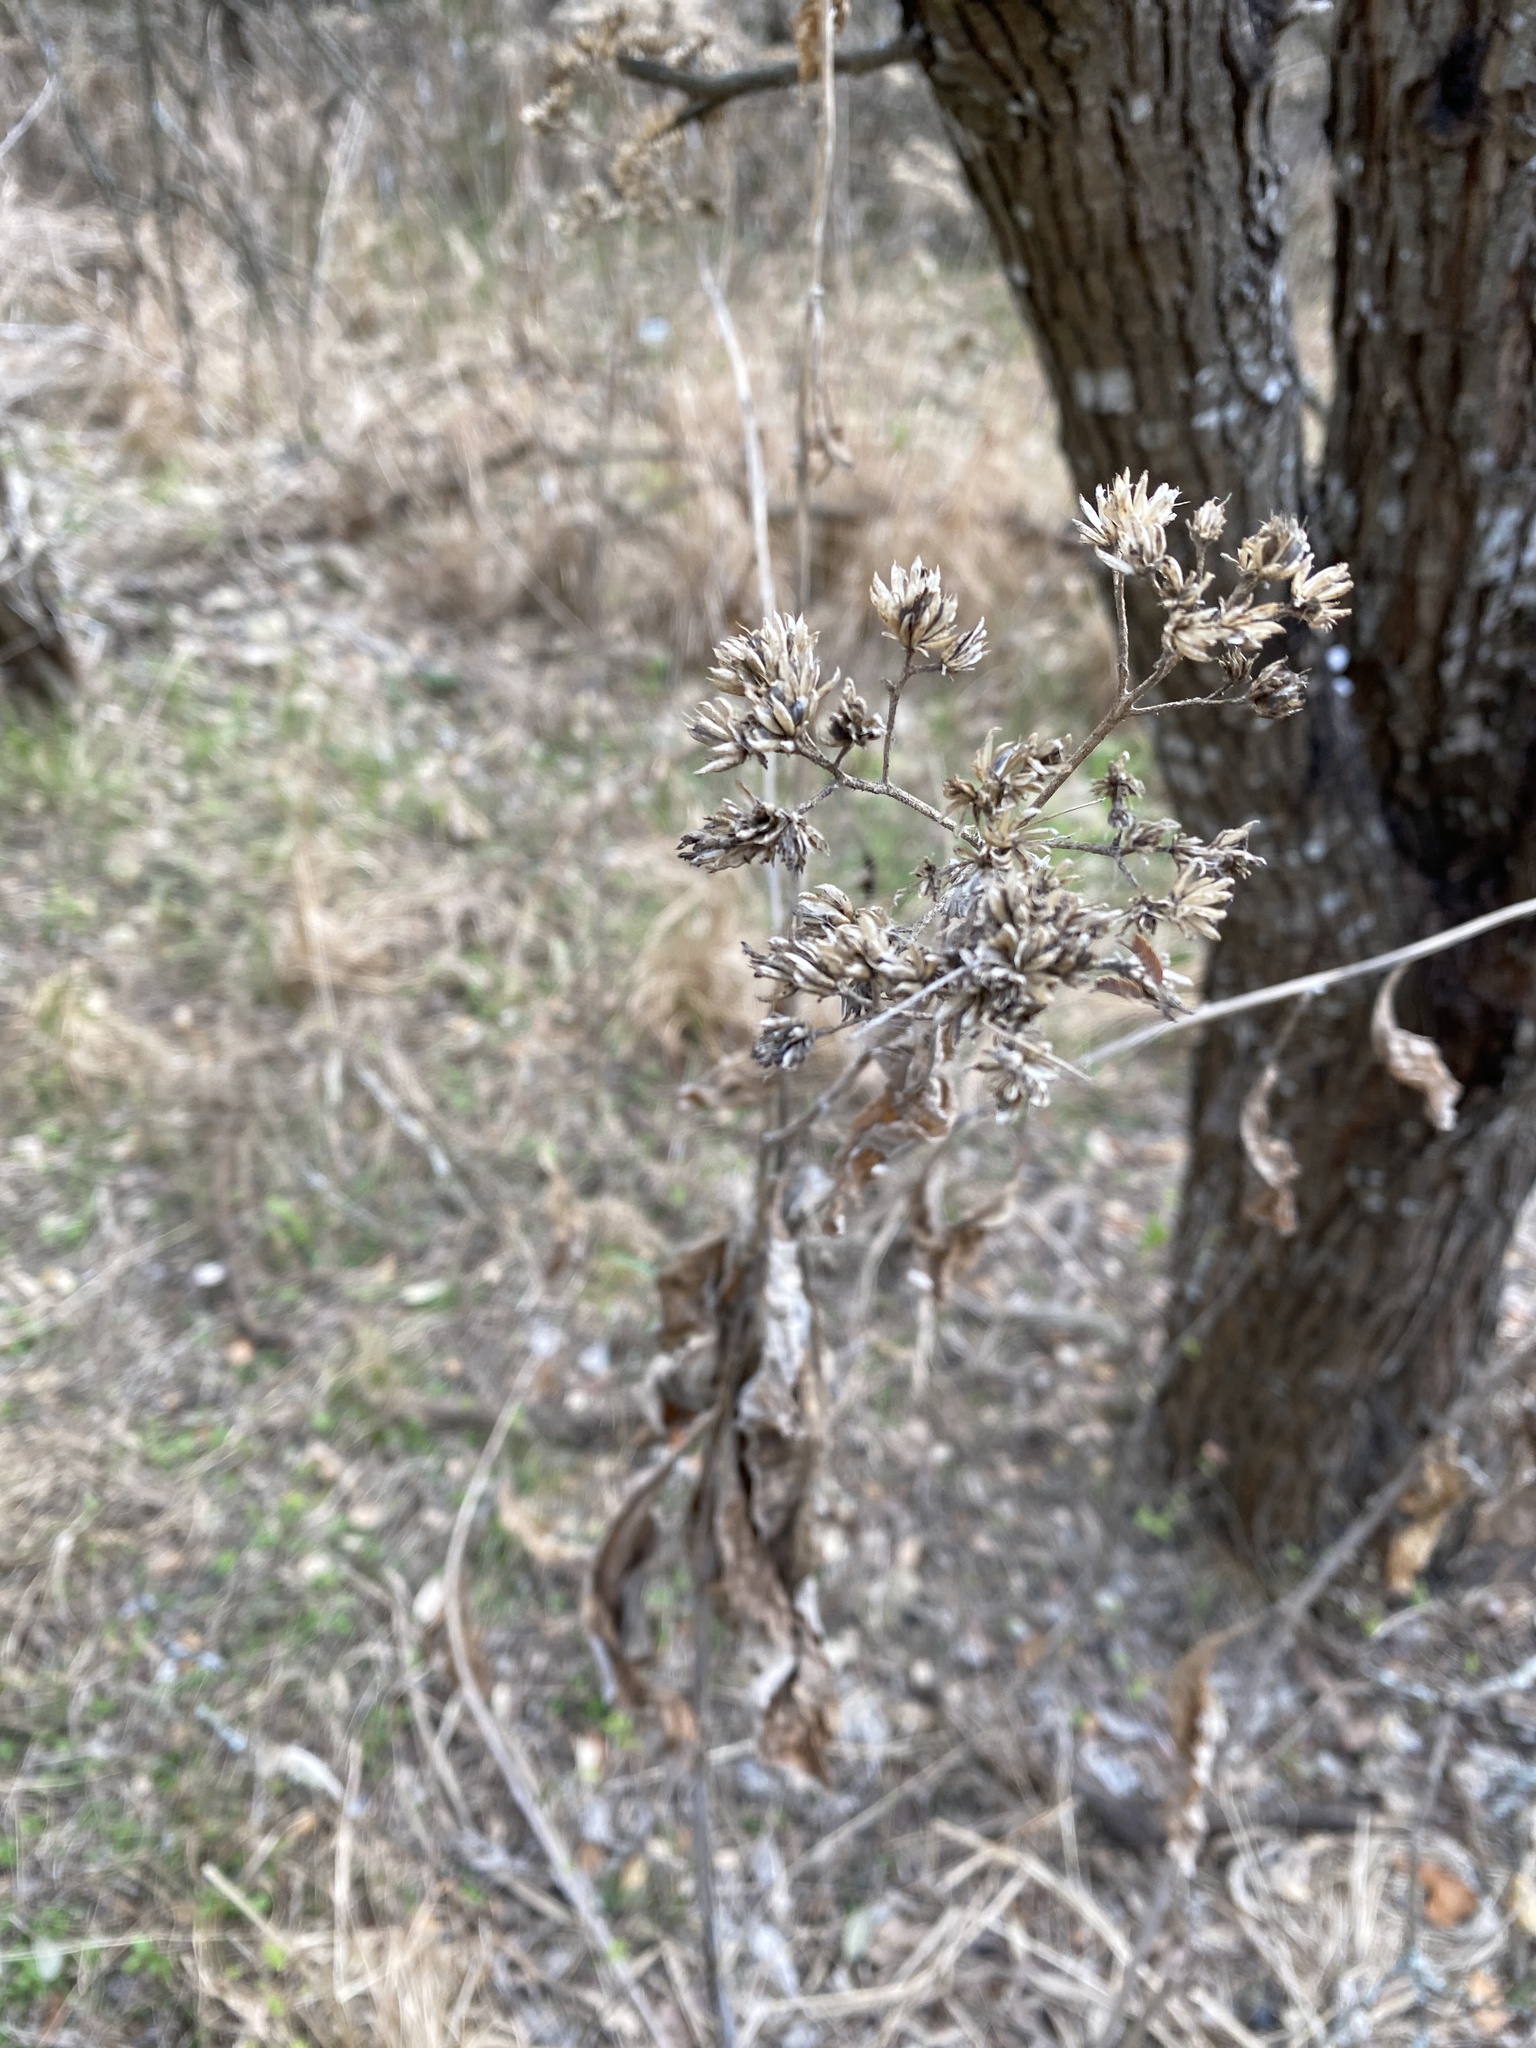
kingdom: Plantae
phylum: Tracheophyta
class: Magnoliopsida
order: Asterales
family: Asteraceae
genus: Verbesina
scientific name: Verbesina virginica
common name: Frostweed
